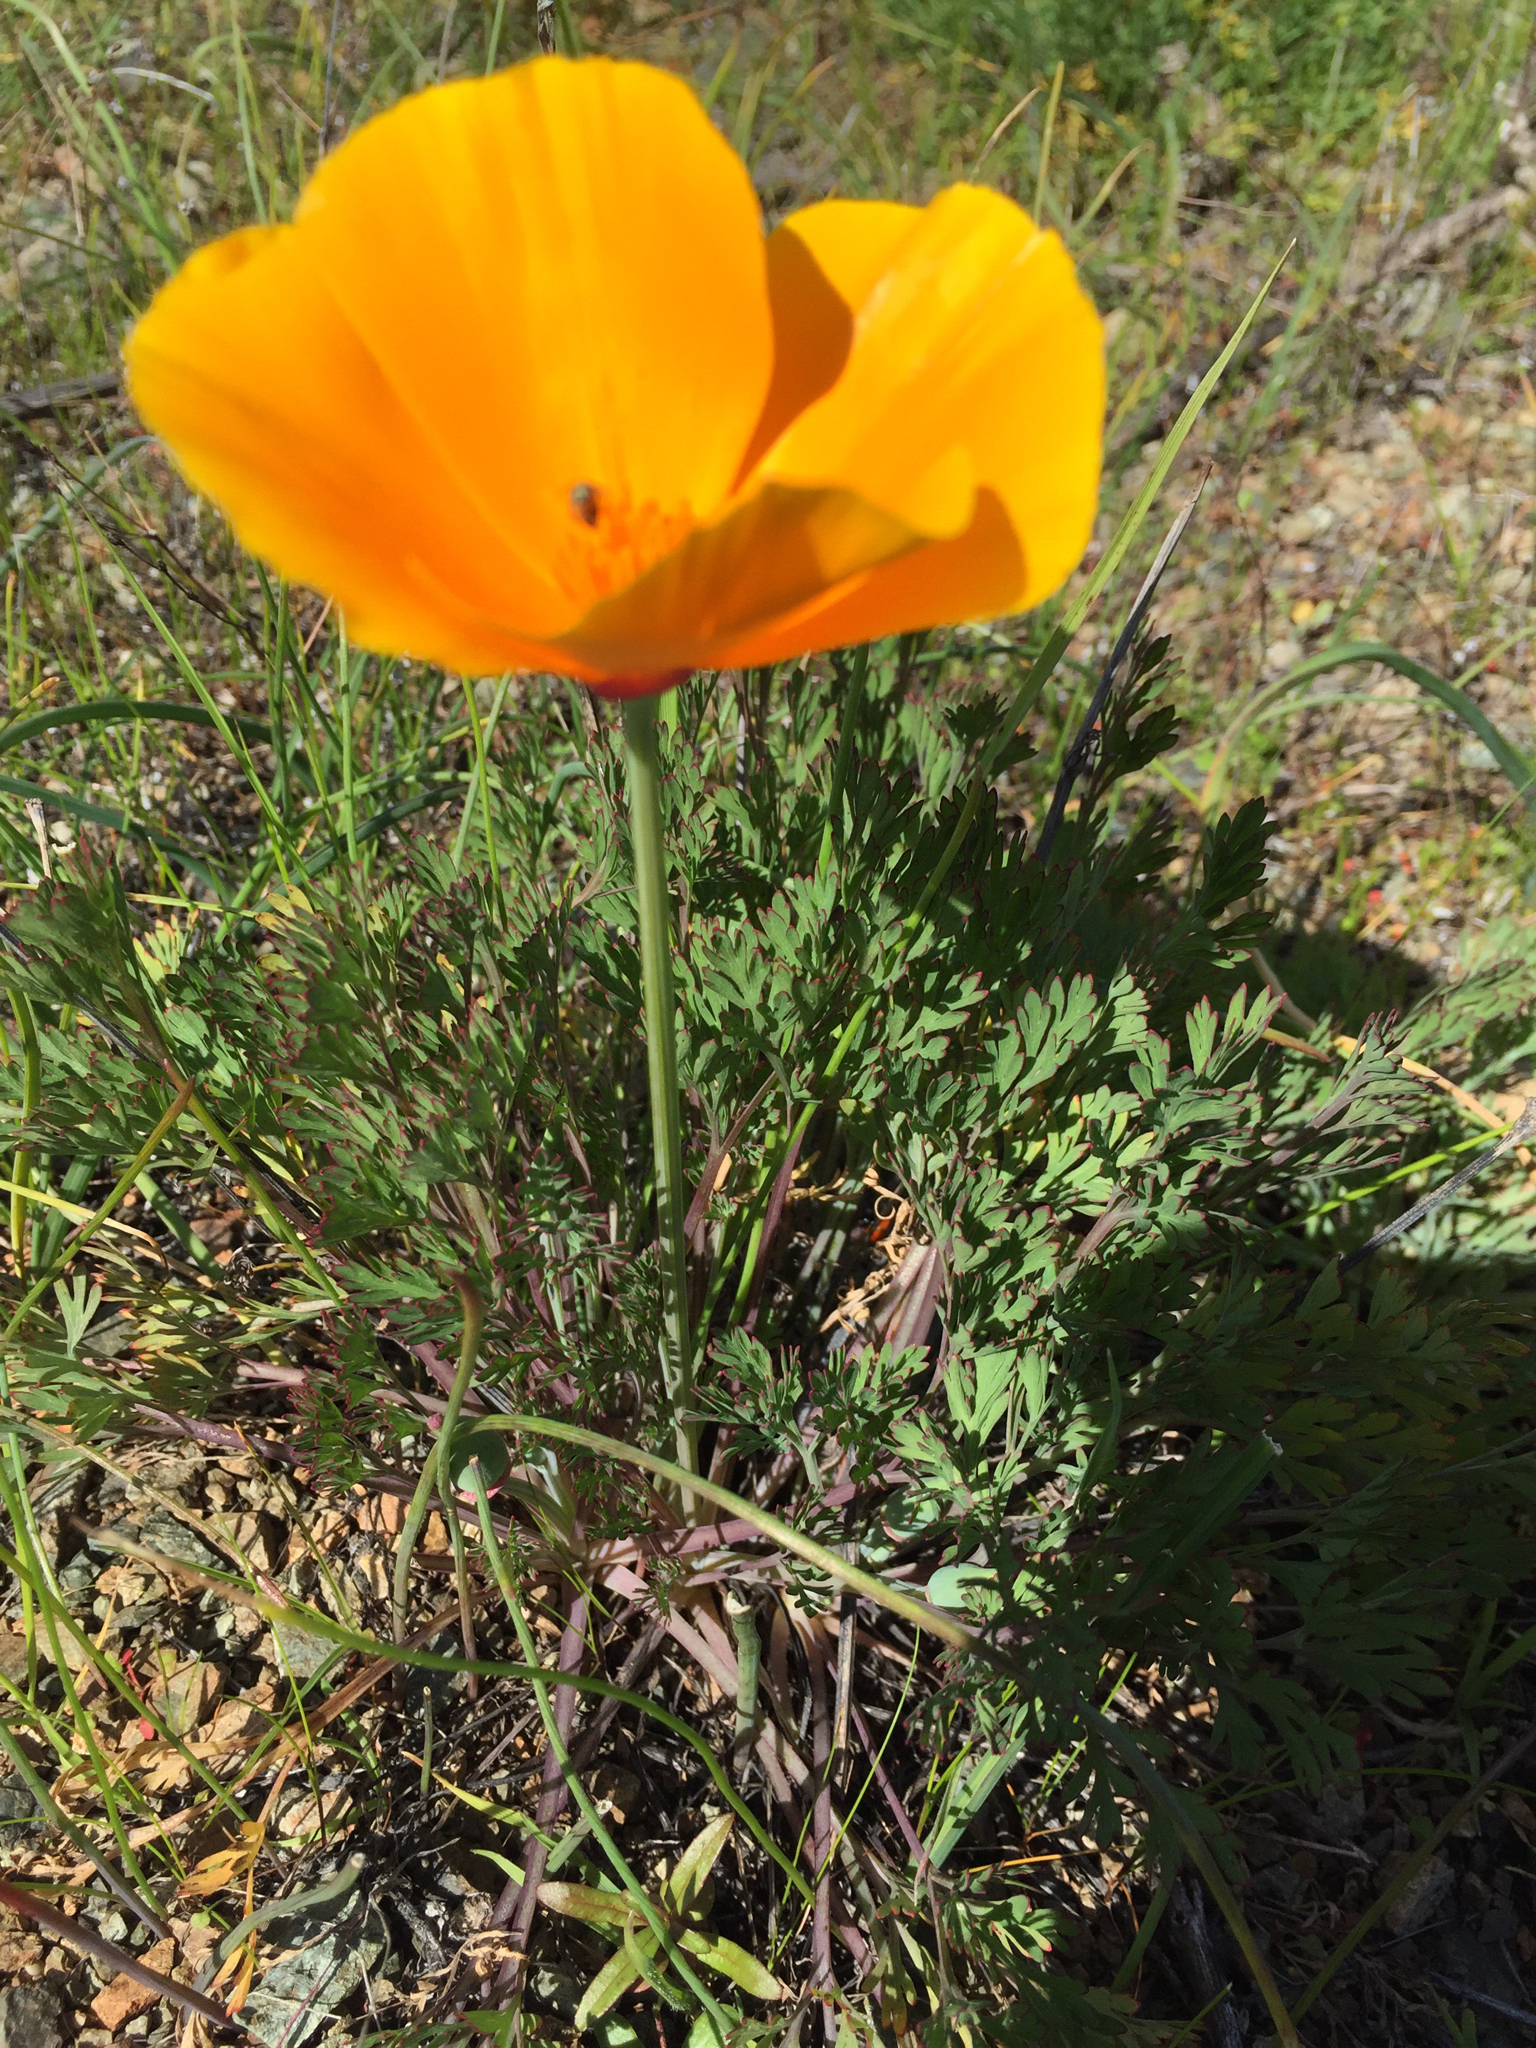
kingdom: Plantae
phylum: Tracheophyta
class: Magnoliopsida
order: Ranunculales
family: Papaveraceae
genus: Eschscholzia
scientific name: Eschscholzia californica
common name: California poppy
